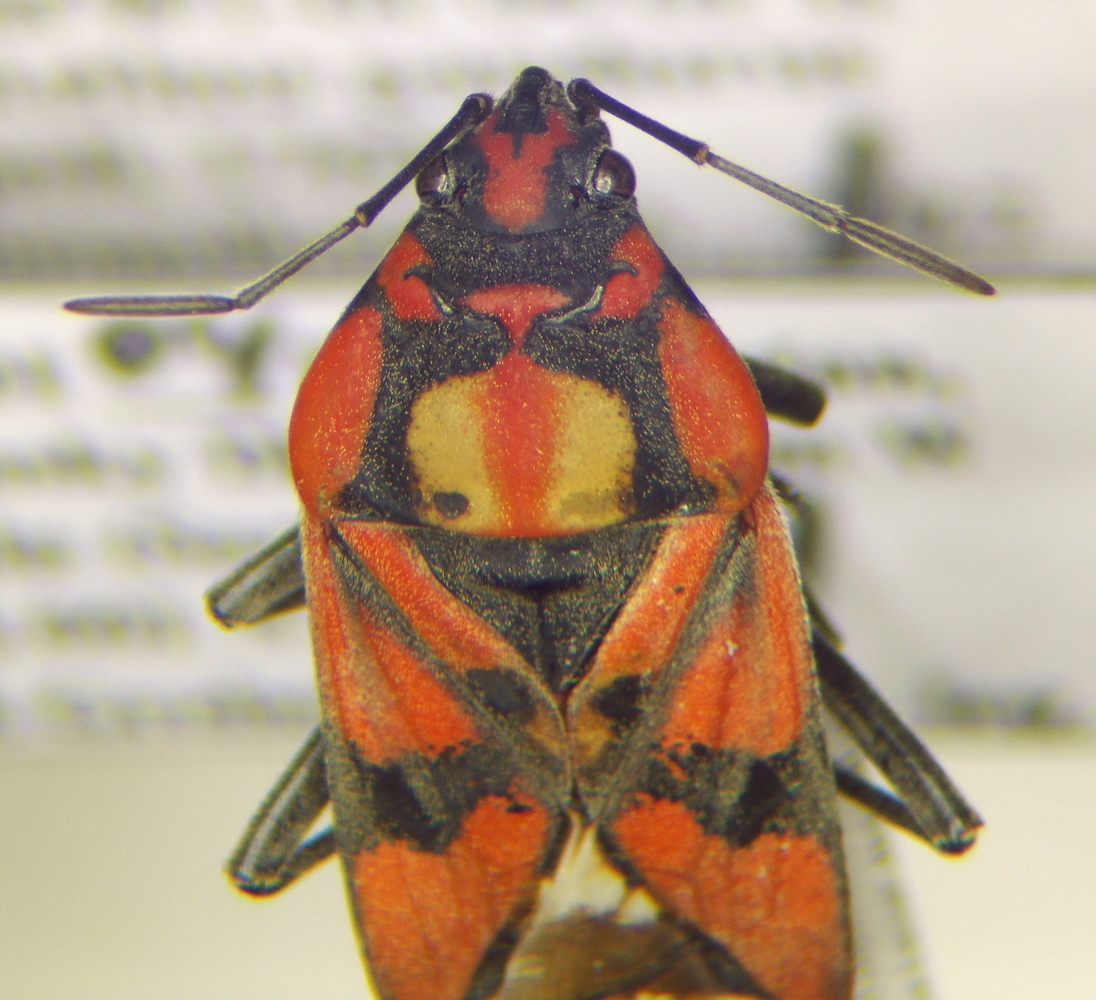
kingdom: Animalia
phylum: Arthropoda
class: Insecta
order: Hemiptera
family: Lygaeidae
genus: Spilostethus
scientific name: Spilostethus pandurus
